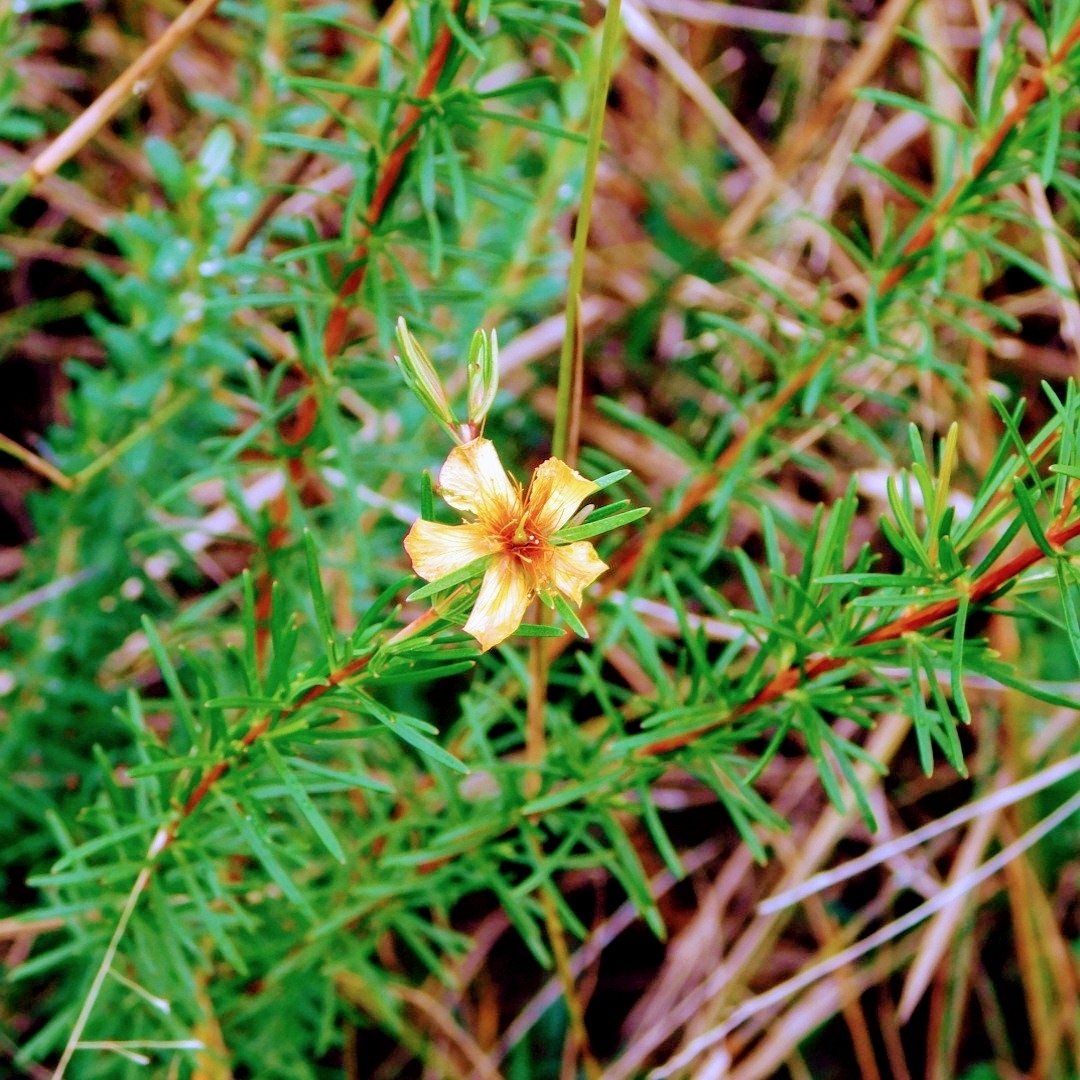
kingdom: Plantae
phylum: Tracheophyta
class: Magnoliopsida
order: Malpighiales
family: Hypericaceae
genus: Hypericum
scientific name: Hypericum fasciculatum
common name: Peelbark st. john's wort
